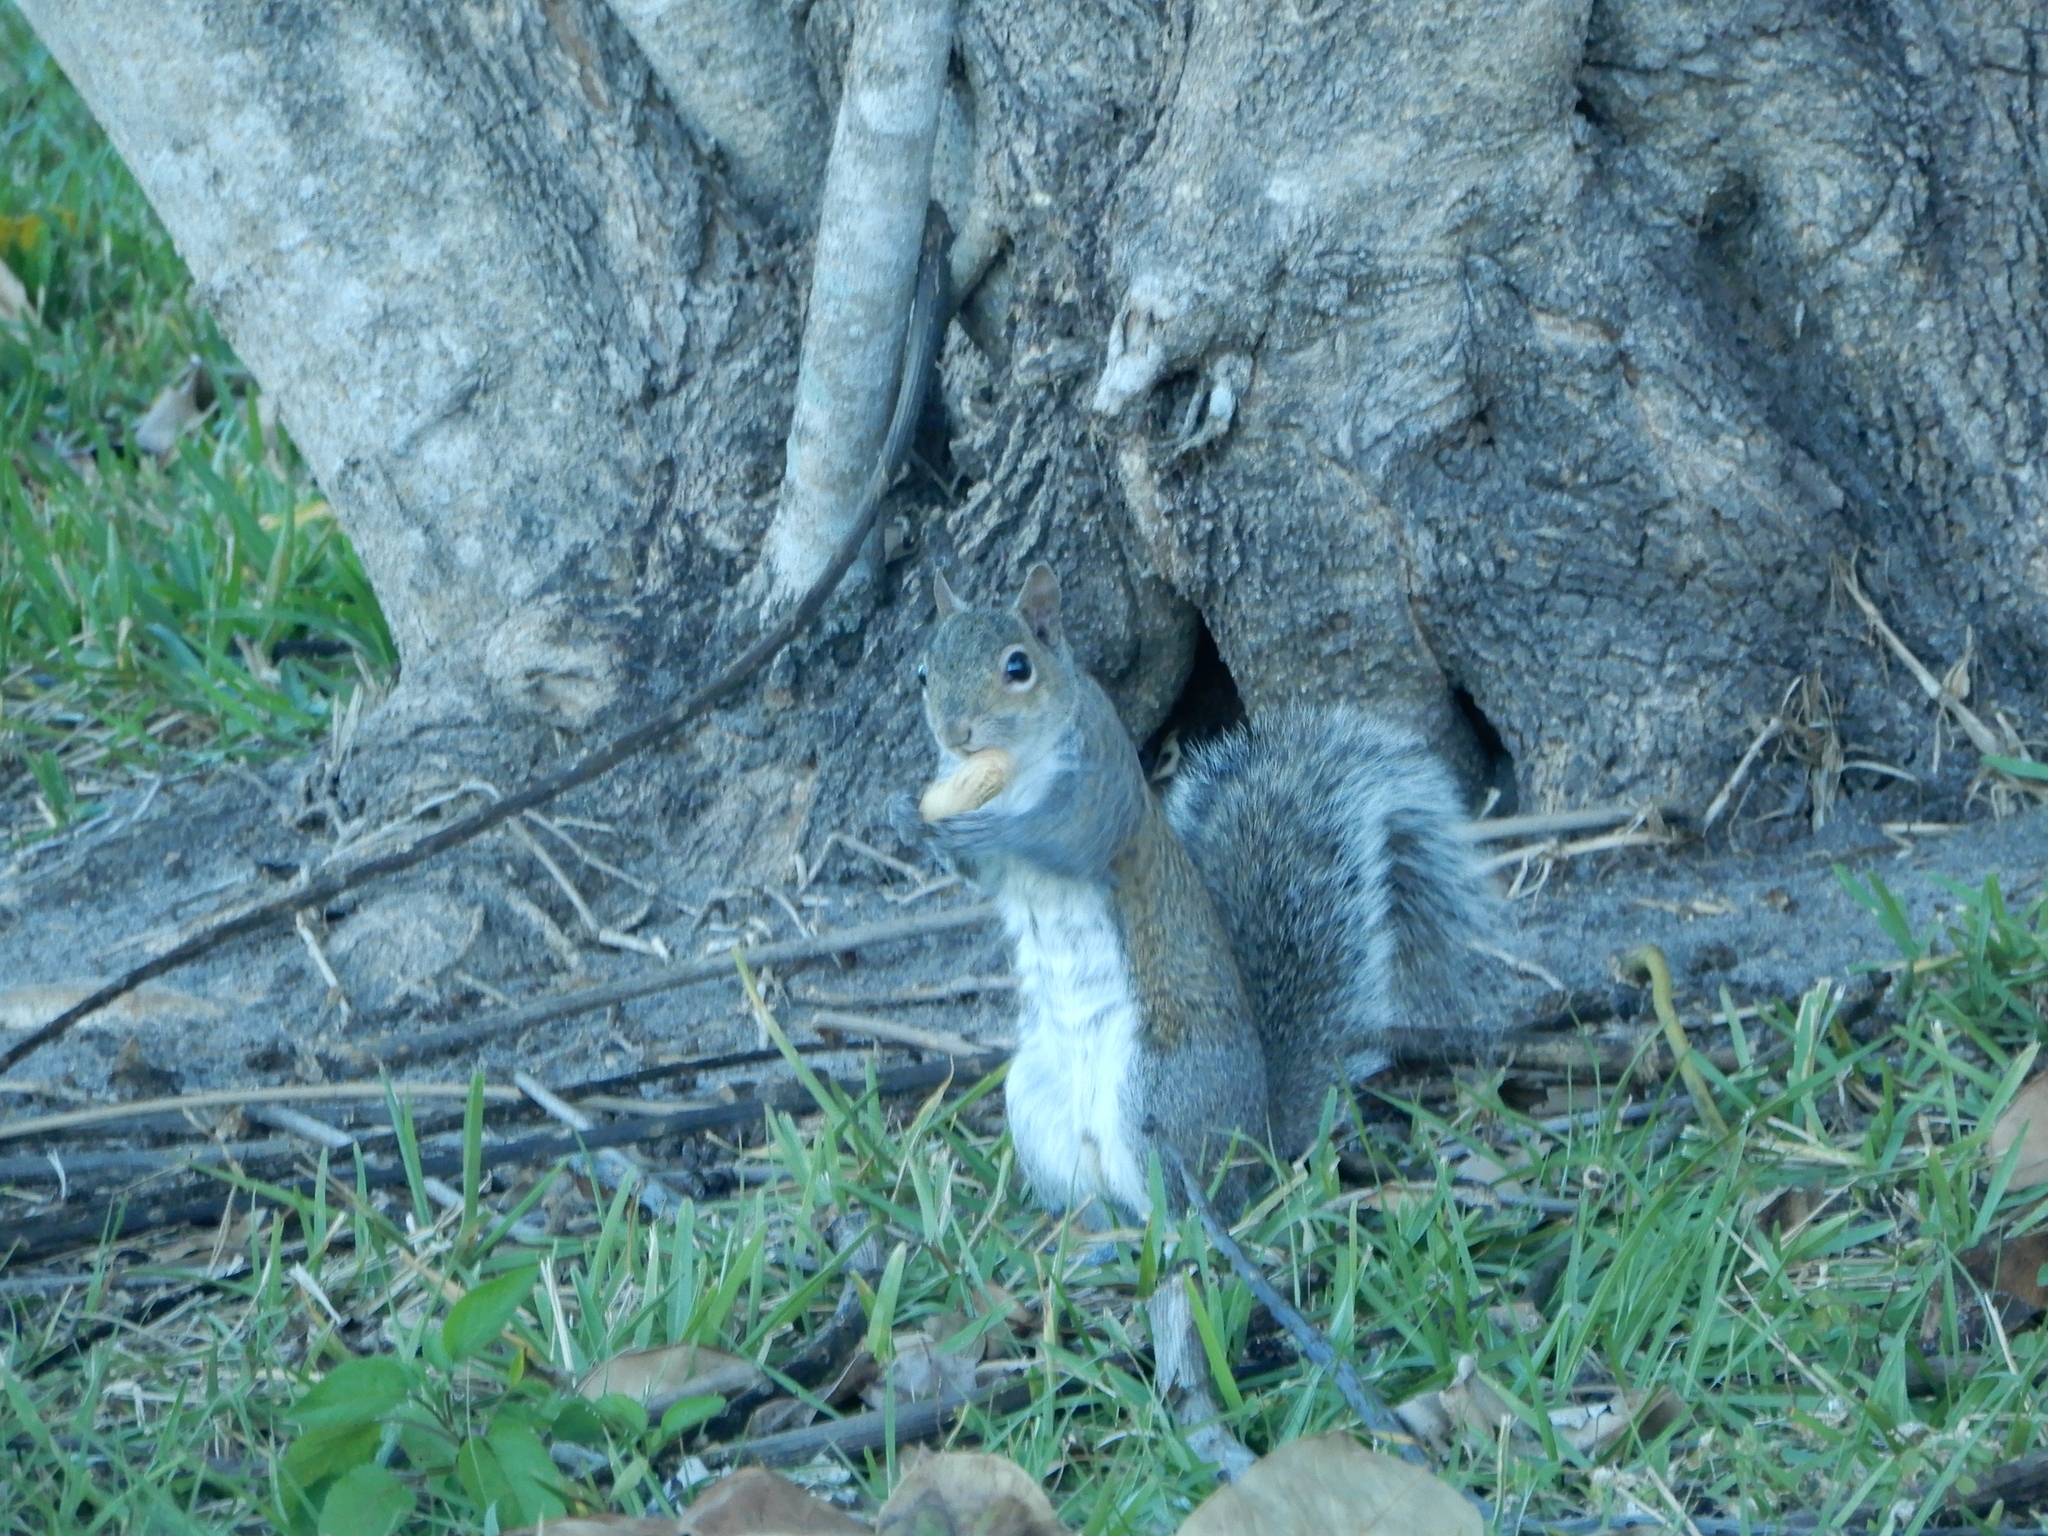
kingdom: Animalia
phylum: Chordata
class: Mammalia
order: Rodentia
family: Sciuridae
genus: Sciurus
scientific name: Sciurus carolinensis
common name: Eastern gray squirrel
